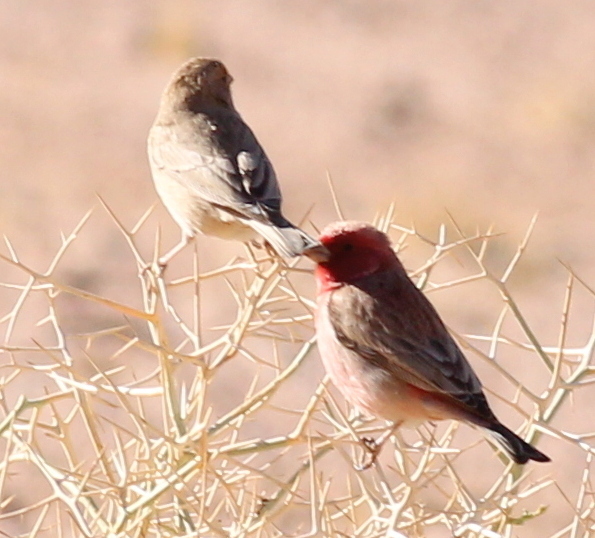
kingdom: Animalia
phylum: Chordata
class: Aves
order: Passeriformes
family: Fringillidae
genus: Carpodacus
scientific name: Carpodacus synoicus
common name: Sinai rosefinch
